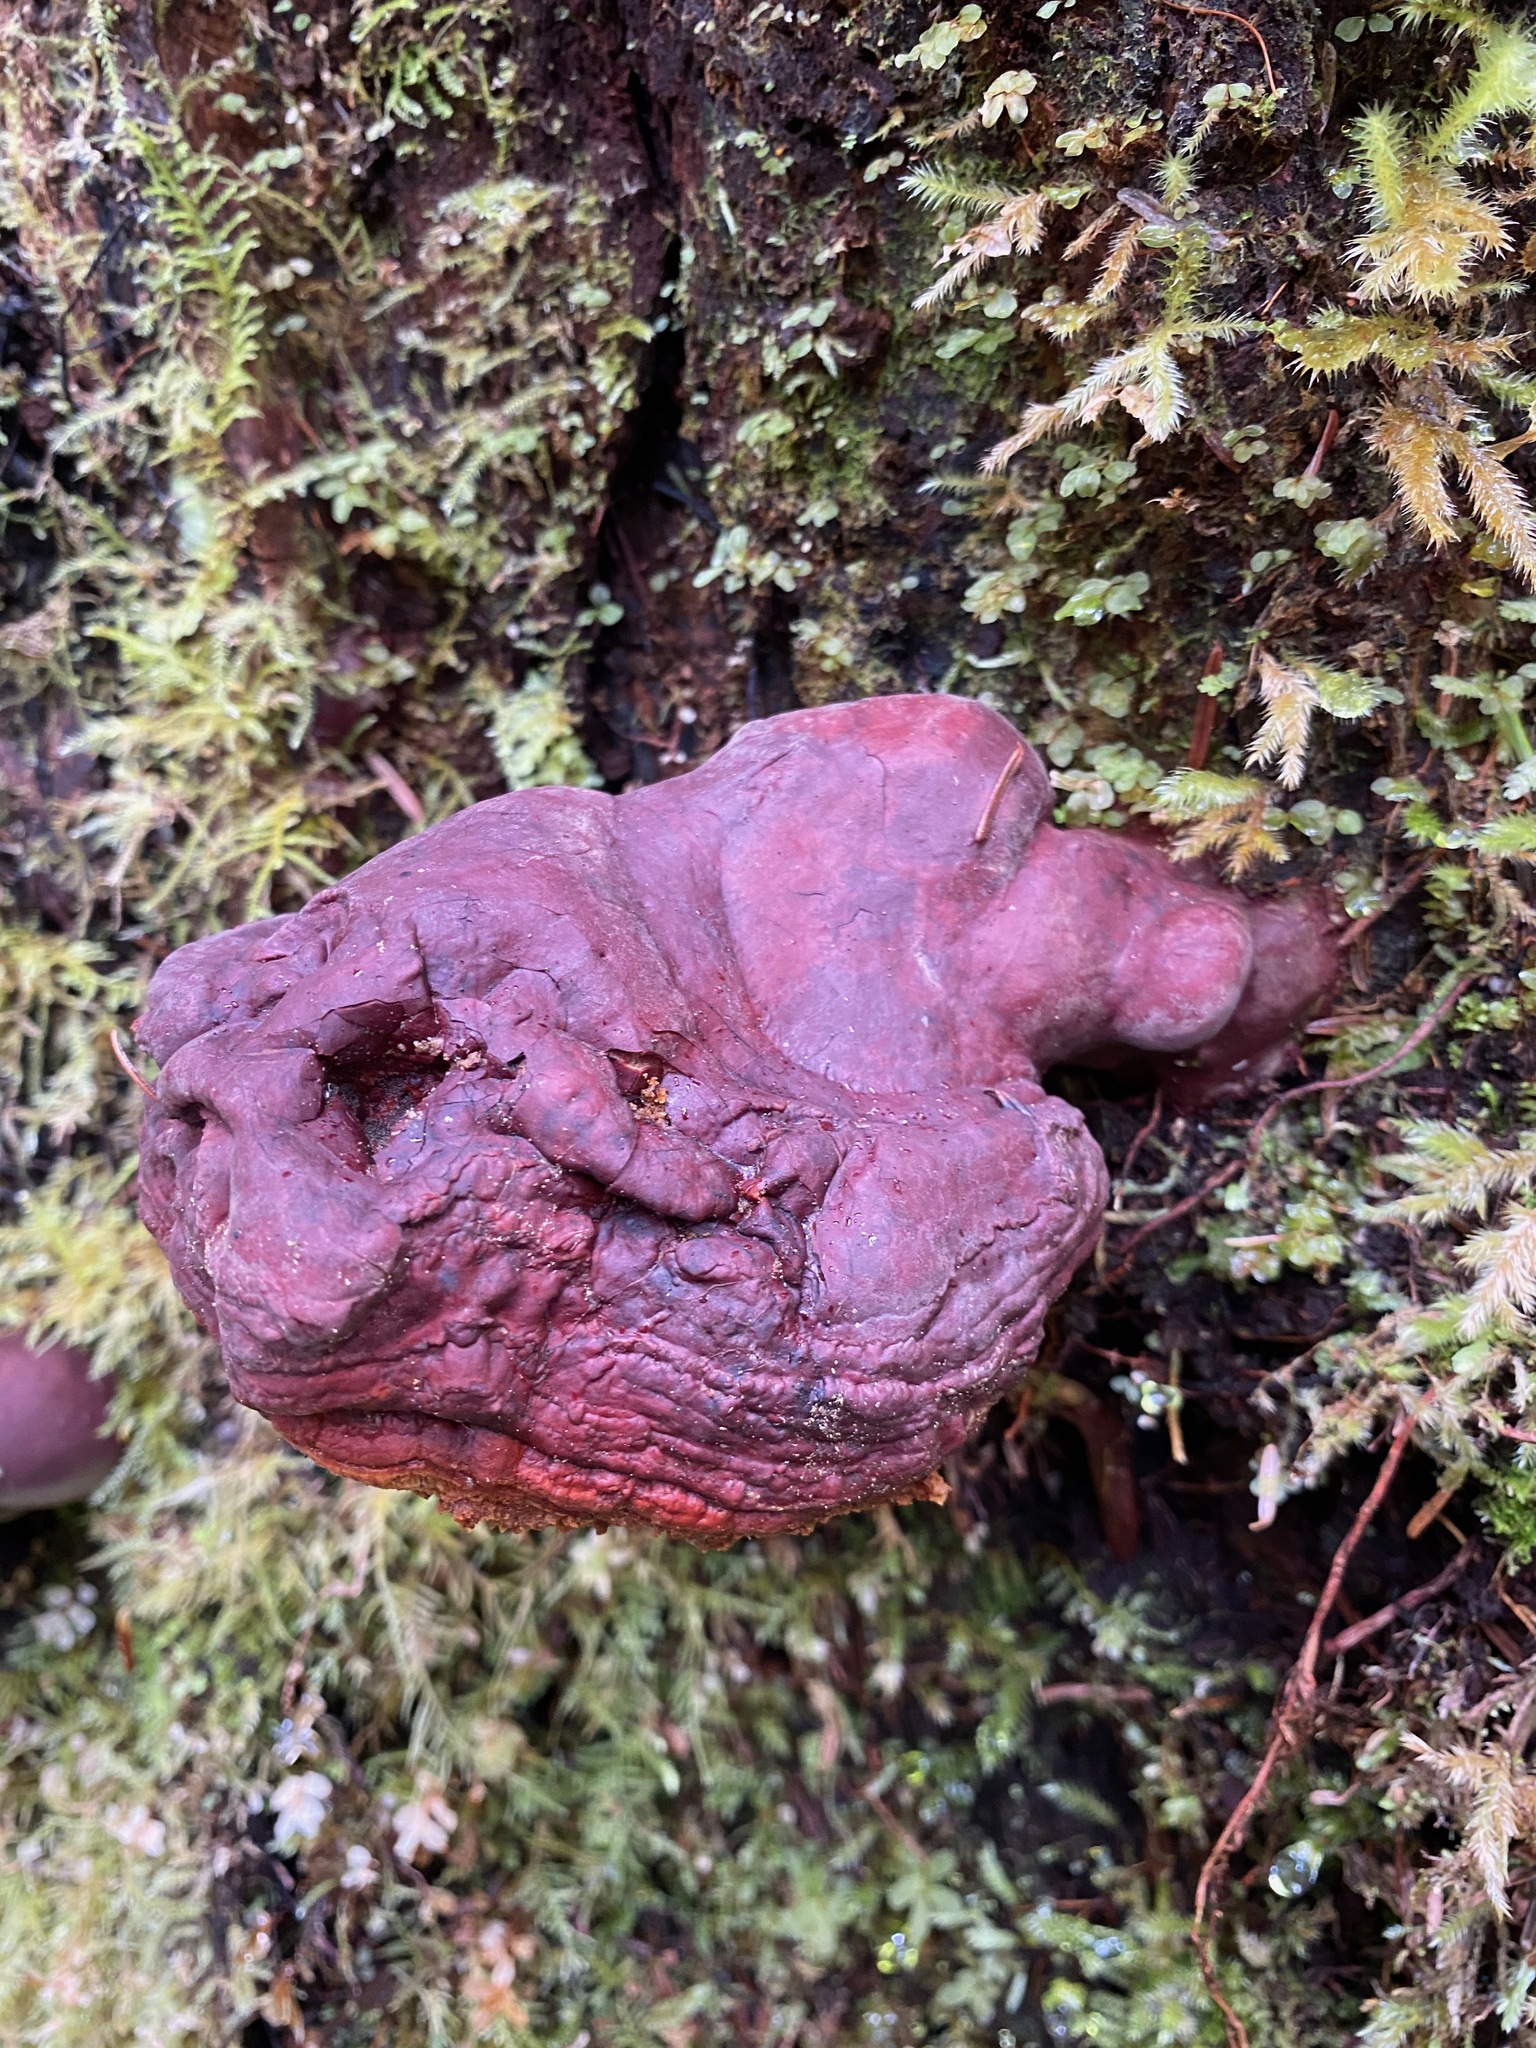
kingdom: Fungi
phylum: Basidiomycota
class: Agaricomycetes
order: Polyporales
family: Polyporaceae
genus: Ganoderma
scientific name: Ganoderma oregonense
